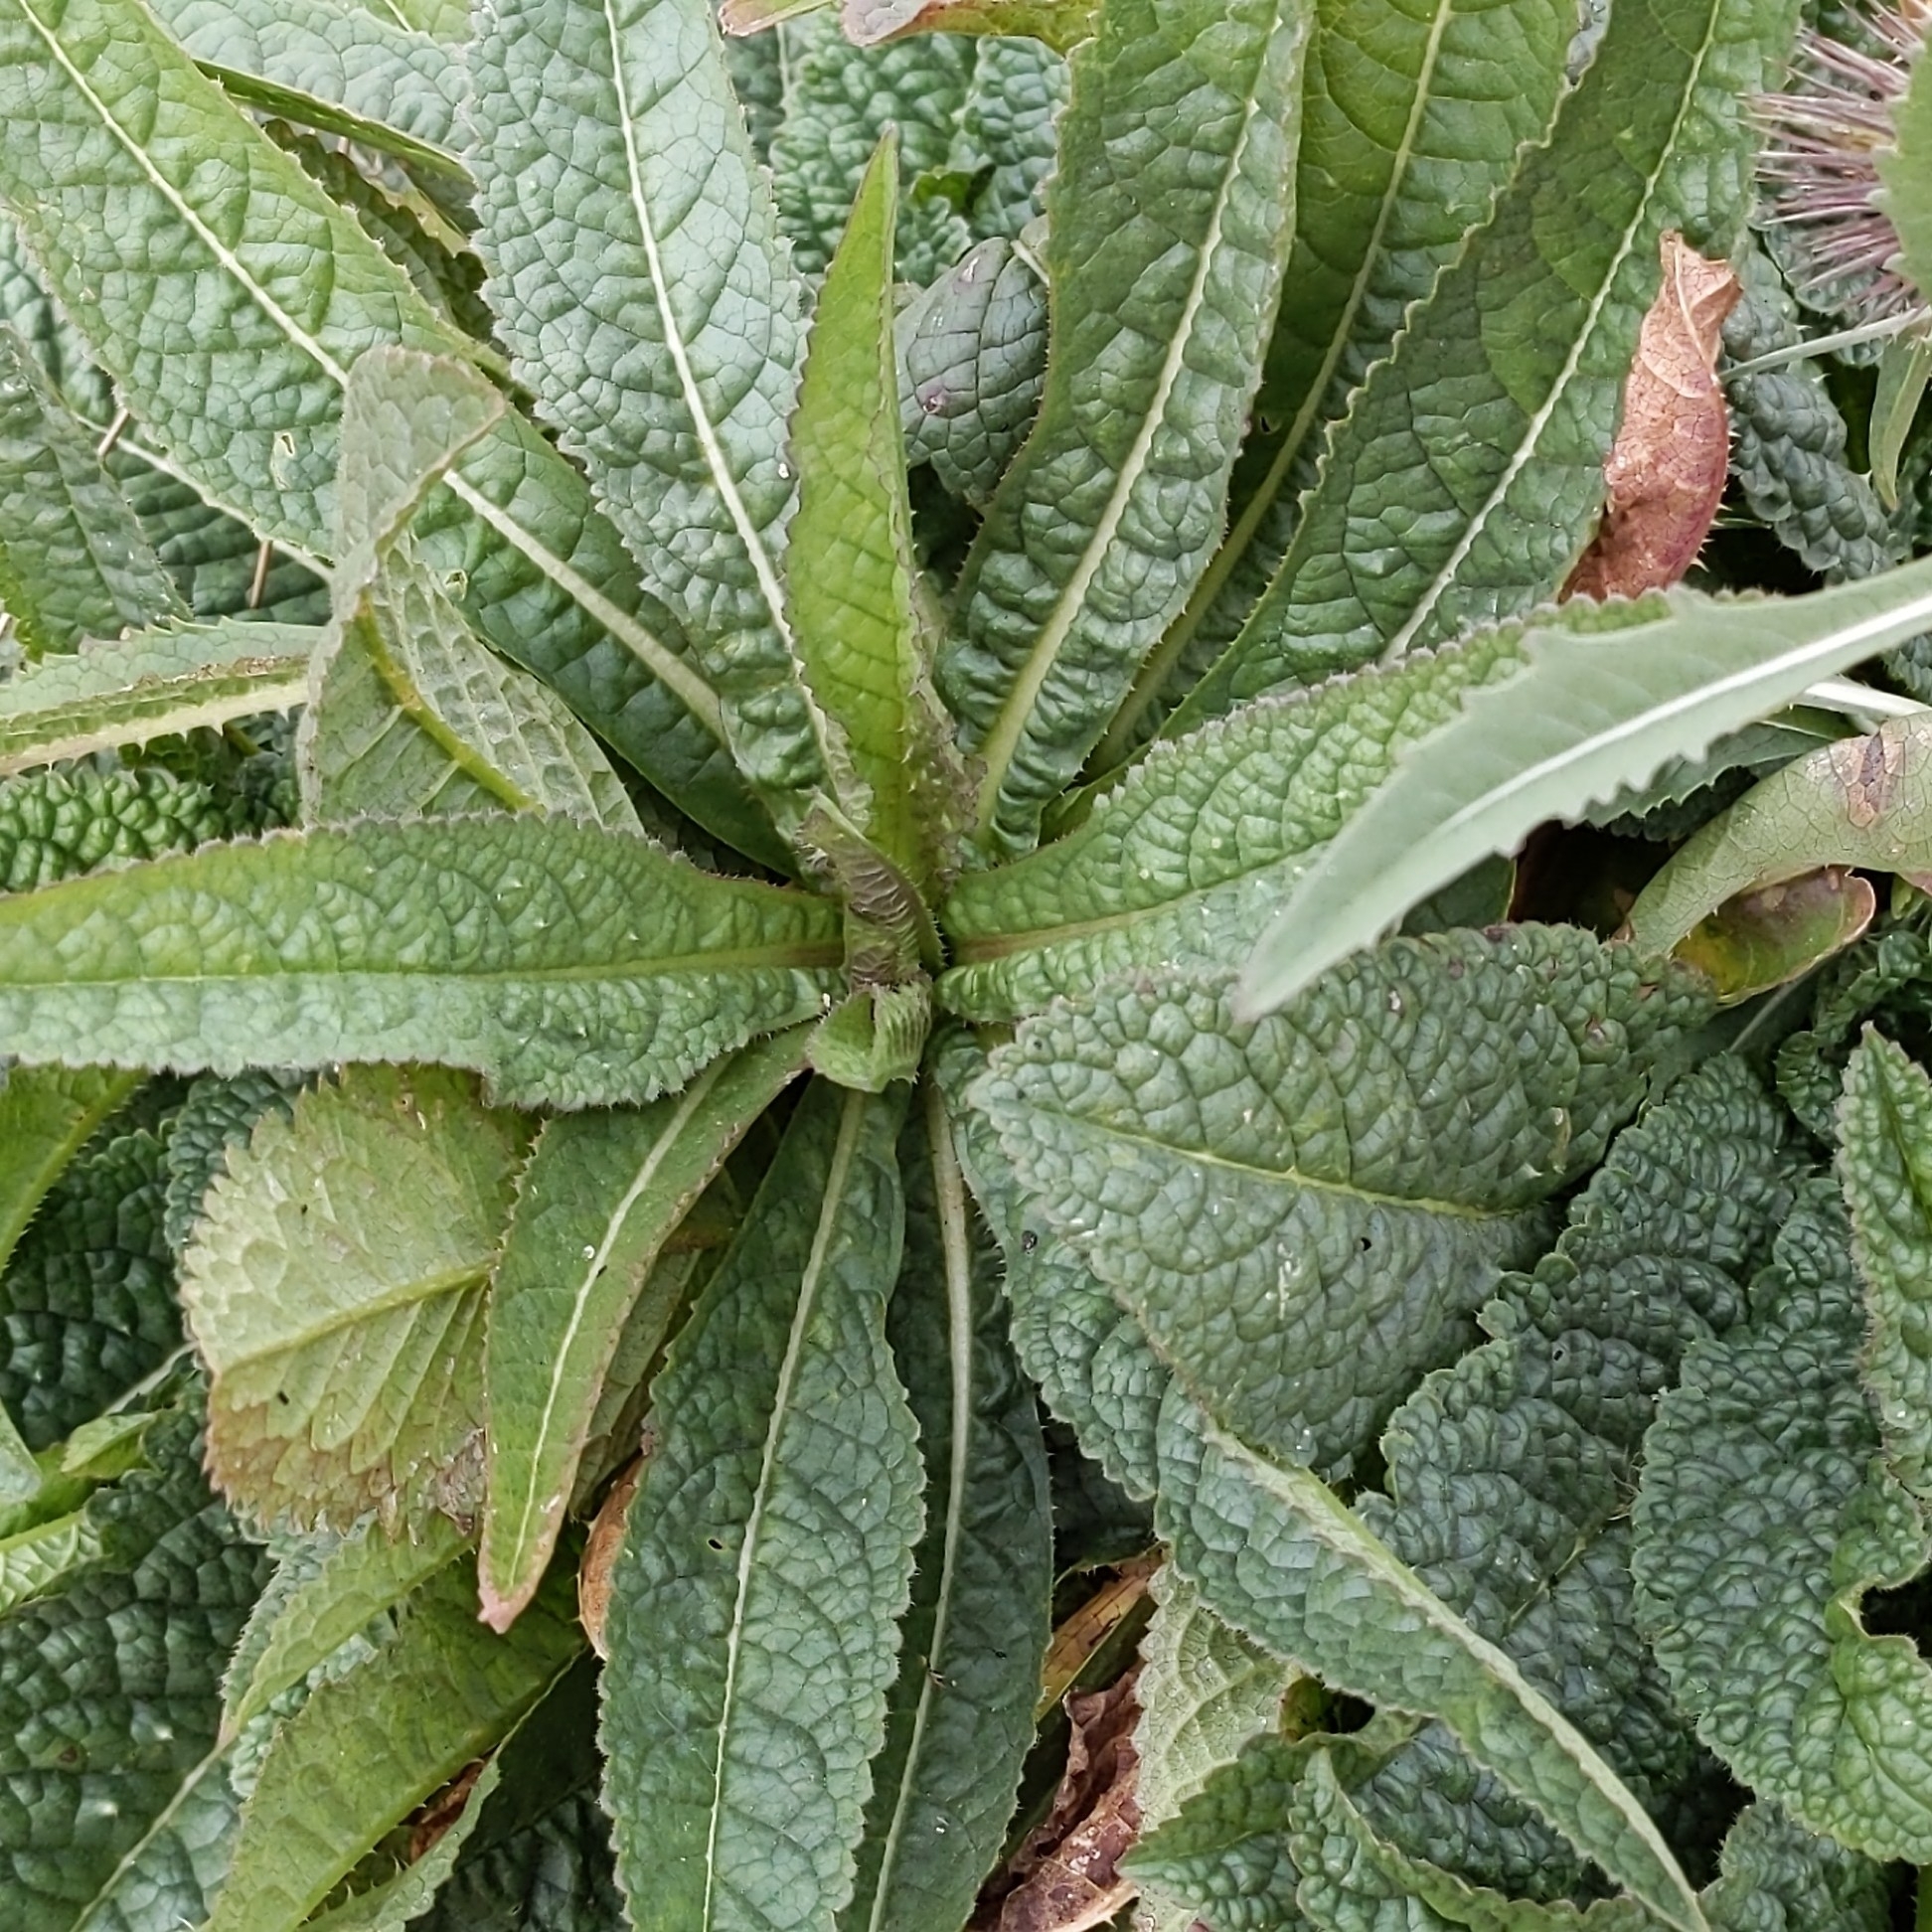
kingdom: Plantae
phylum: Tracheophyta
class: Magnoliopsida
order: Dipsacales
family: Caprifoliaceae
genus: Dipsacus
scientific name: Dipsacus fullonum
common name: Teasel
